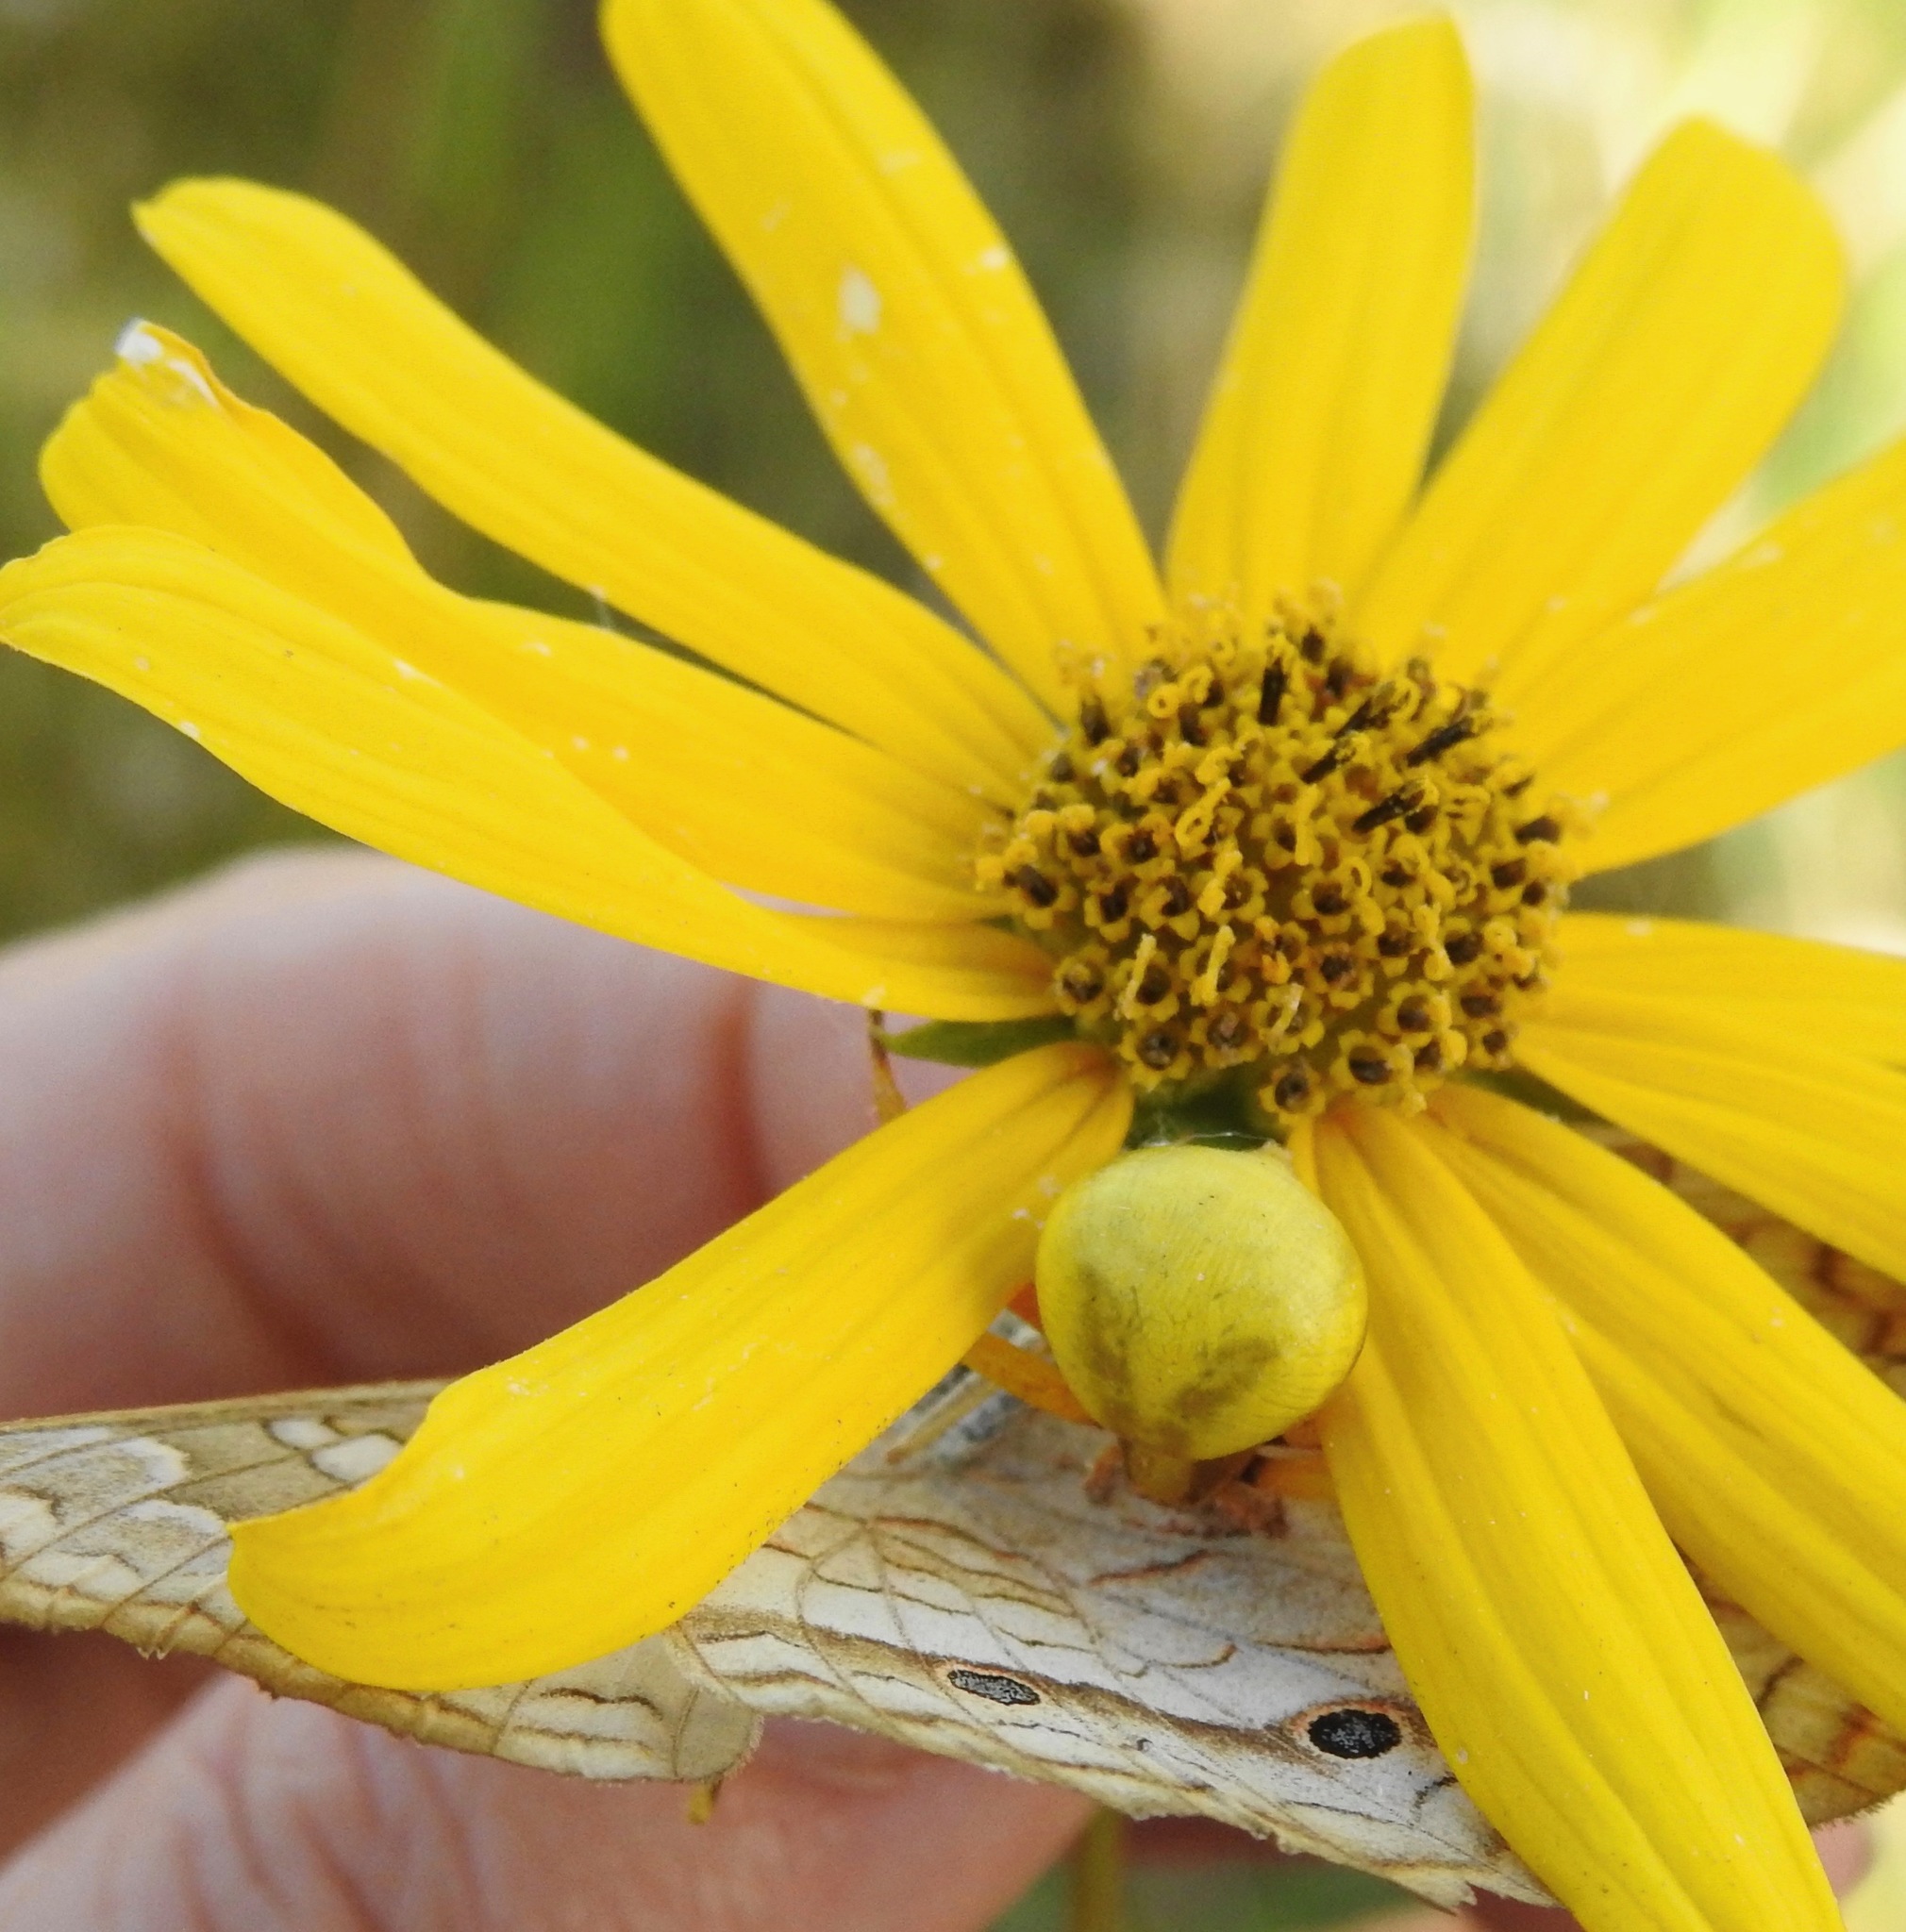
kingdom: Animalia
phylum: Arthropoda
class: Arachnida
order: Araneae
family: Thomisidae
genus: Misumenoides
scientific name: Misumenoides formosipes
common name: White-banded crab spider
